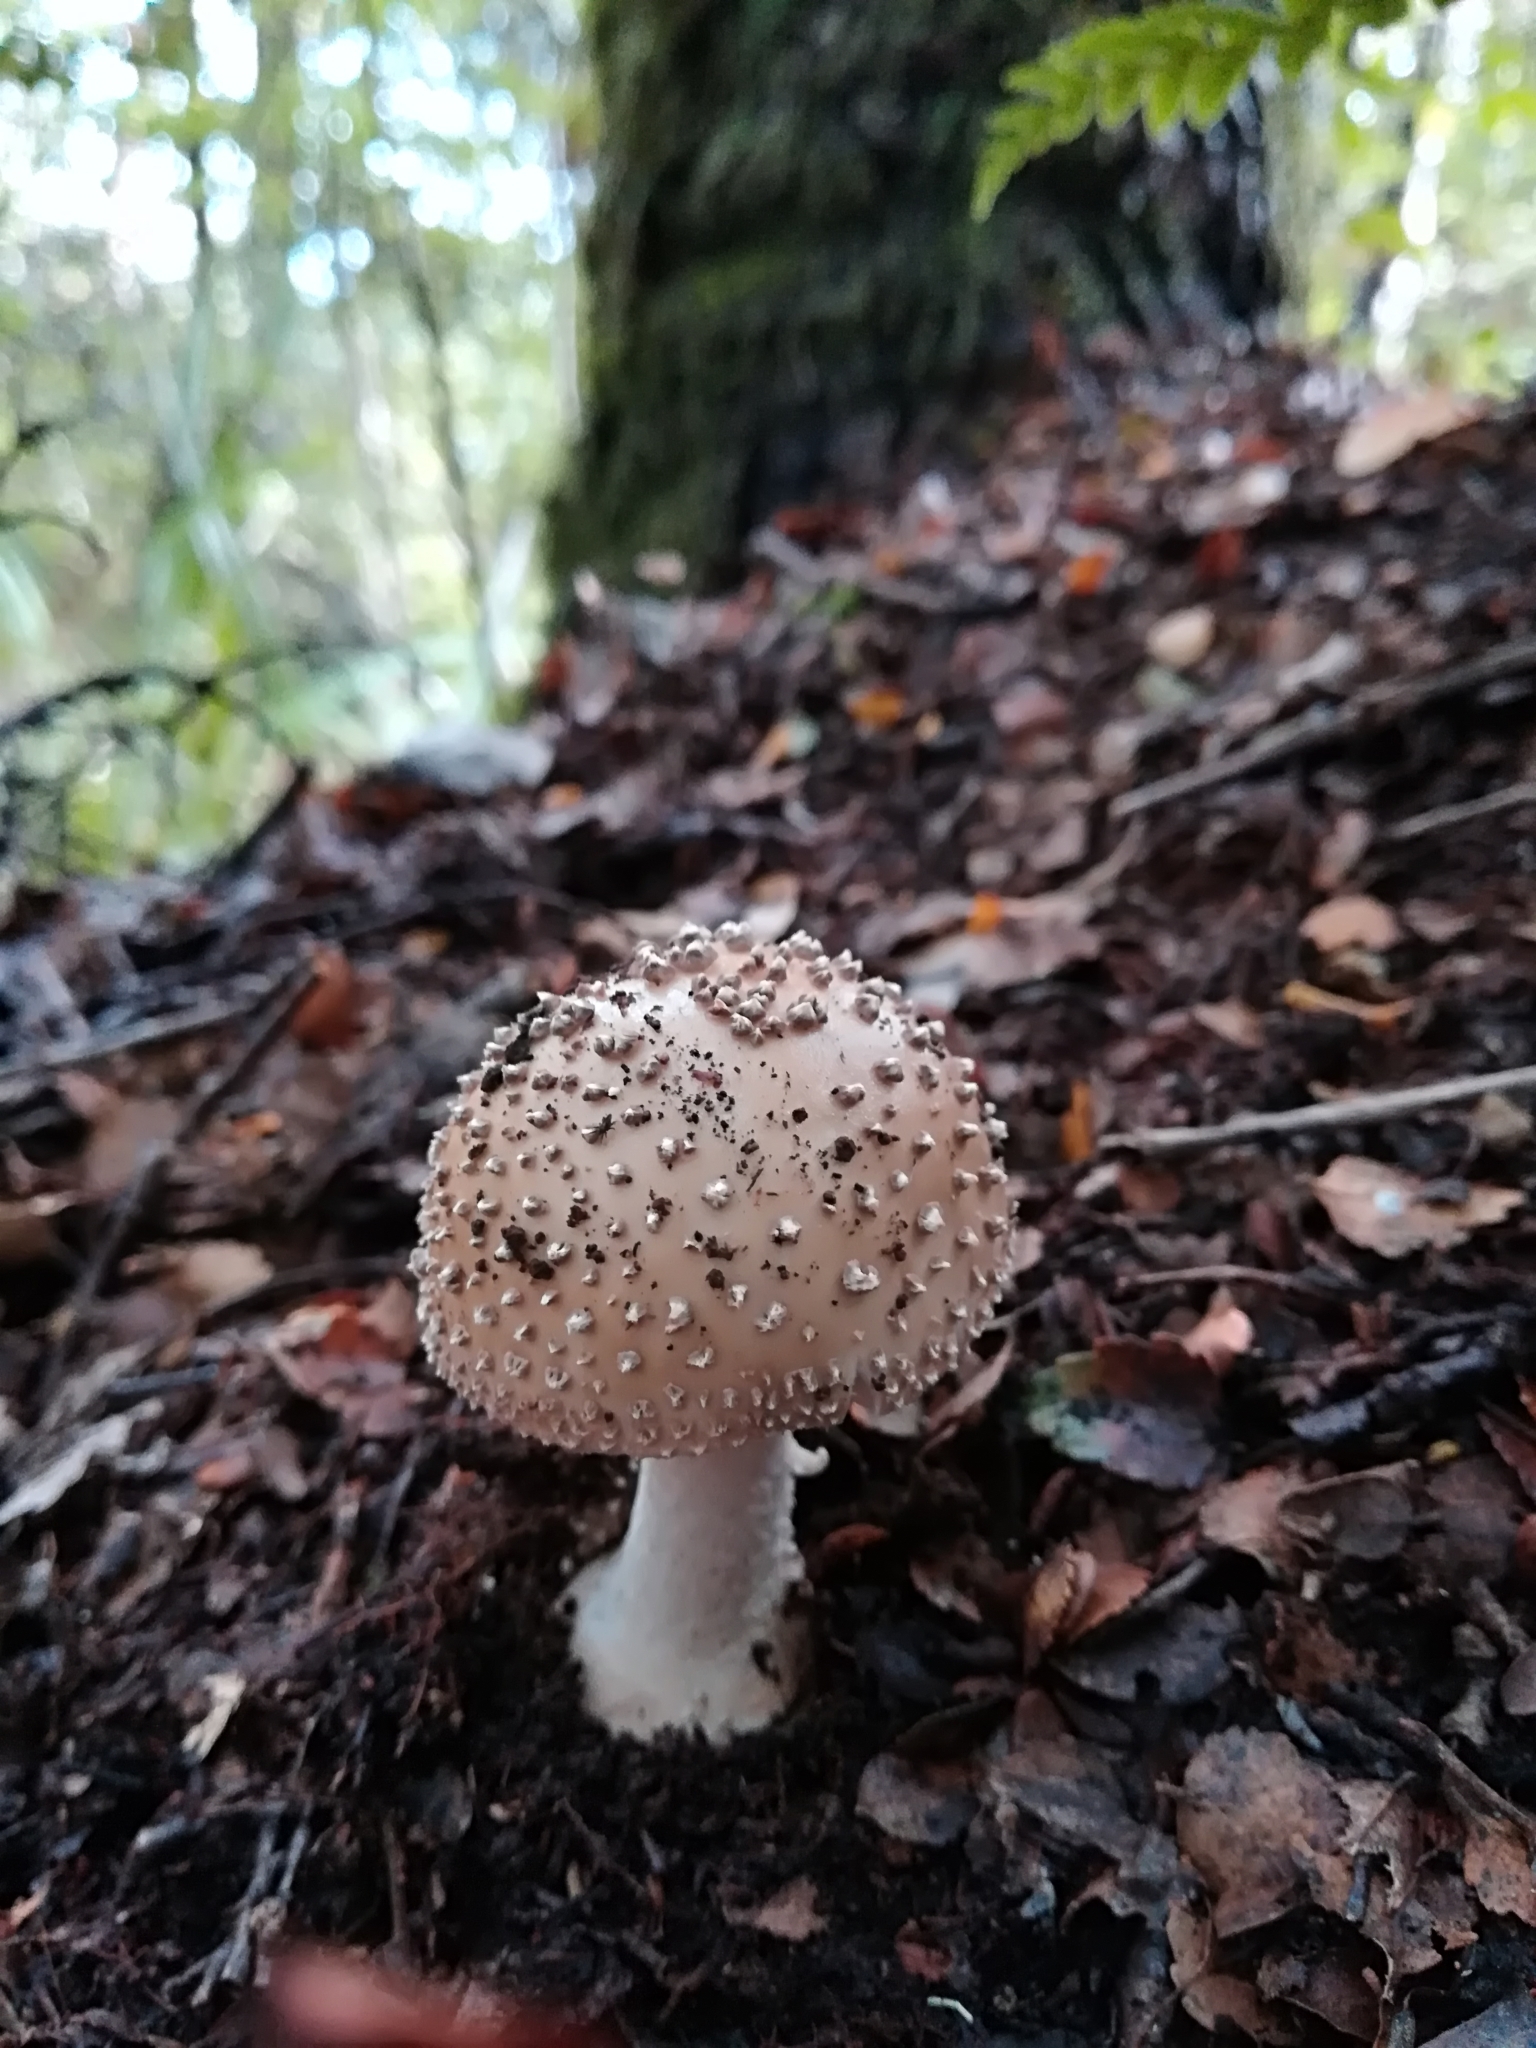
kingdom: Fungi
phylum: Basidiomycota
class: Agaricomycetes
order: Agaricales
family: Amanitaceae
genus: Amanita
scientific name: Amanita australis
